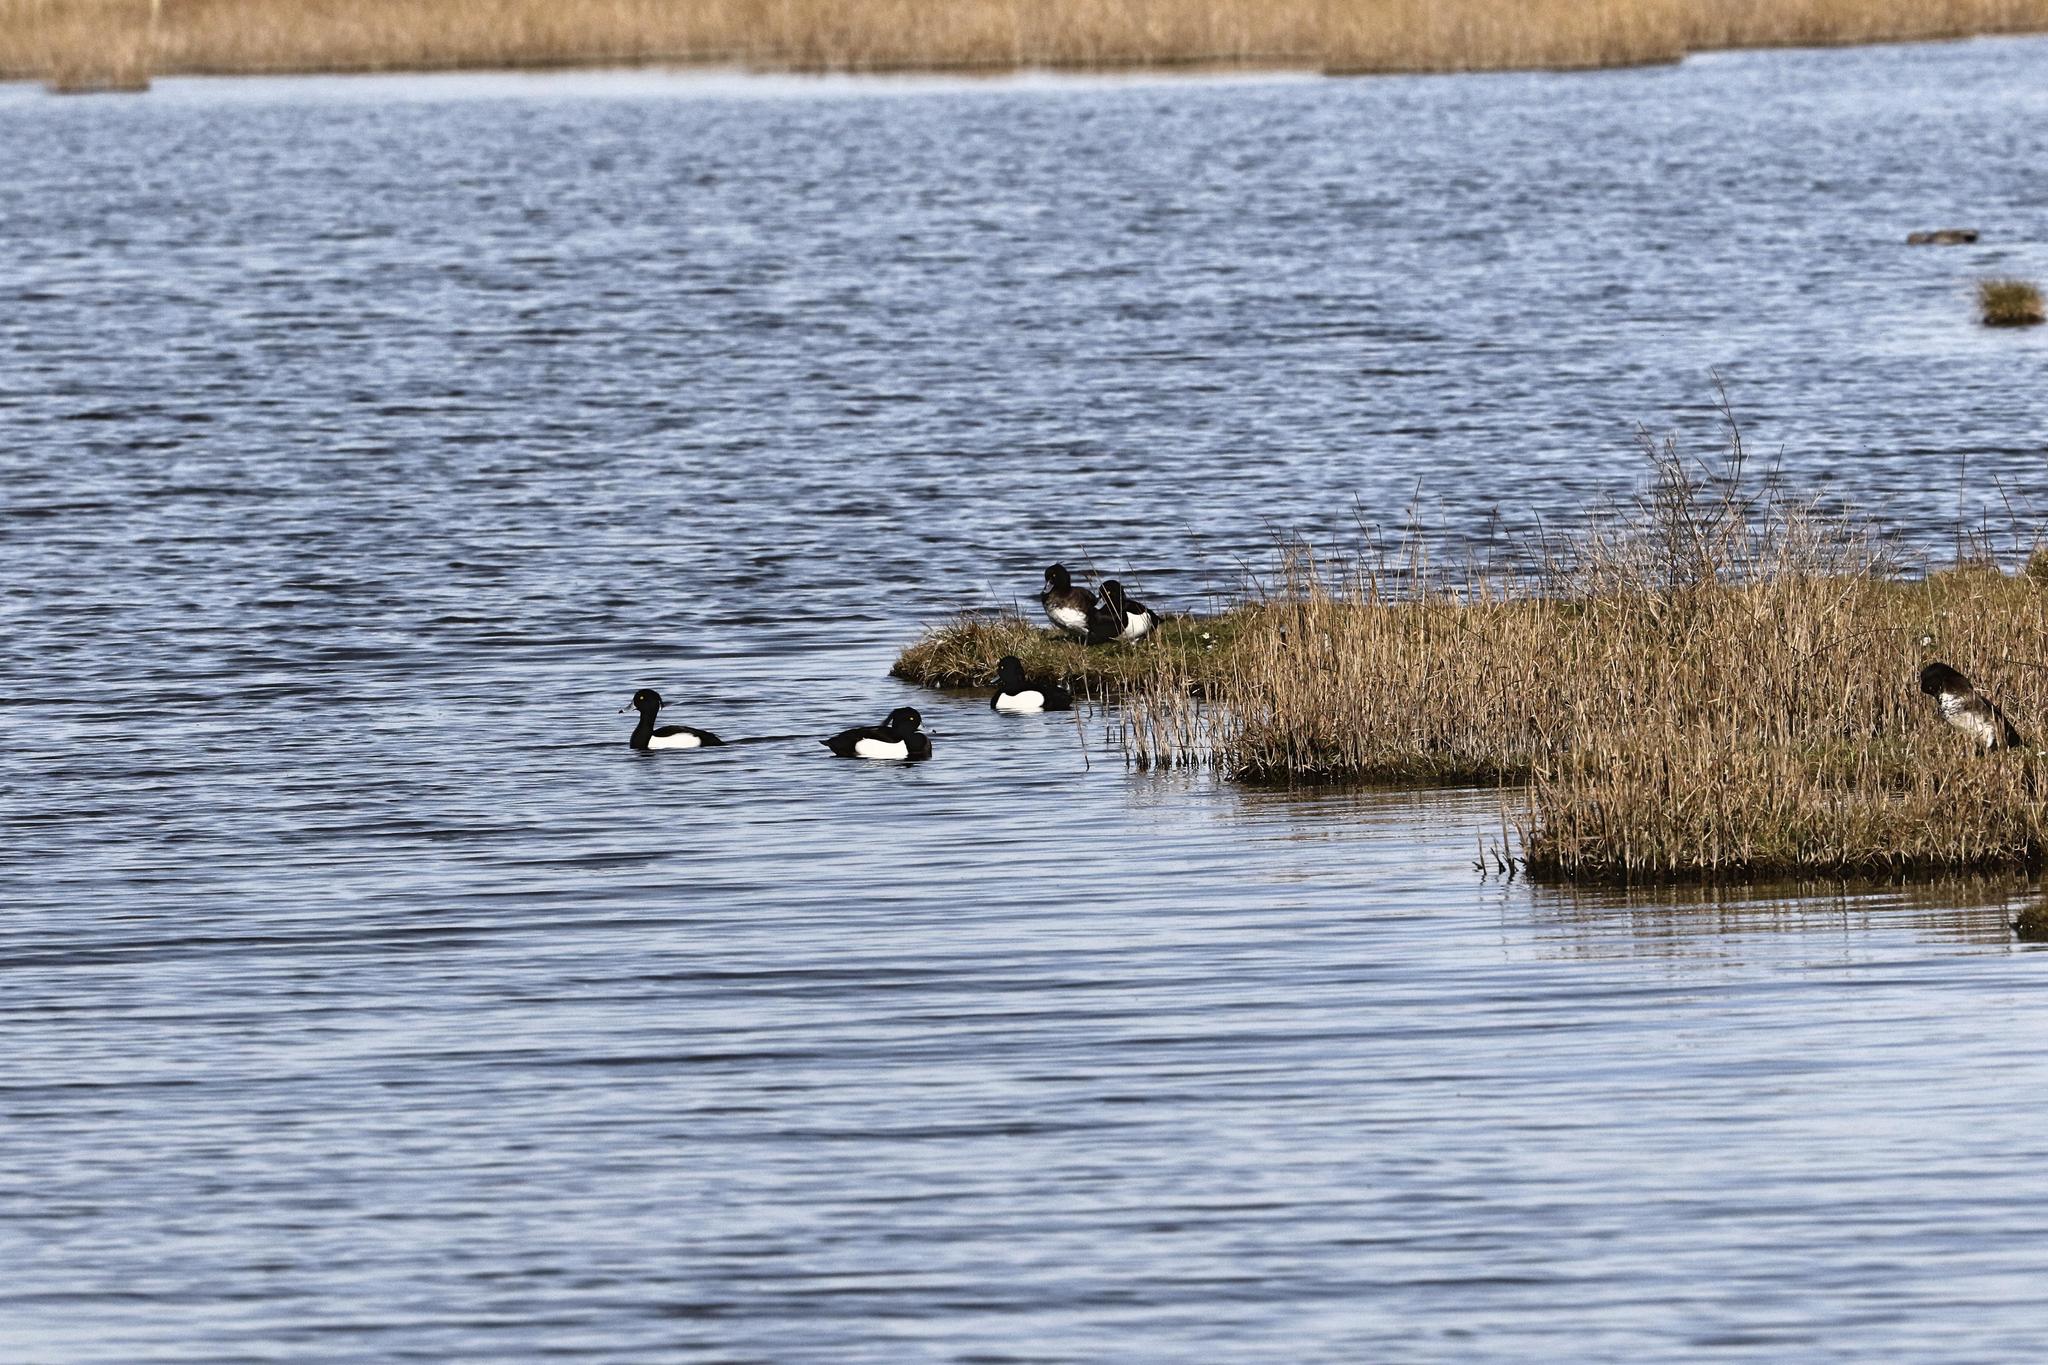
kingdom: Animalia
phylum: Chordata
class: Aves
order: Anseriformes
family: Anatidae
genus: Aythya
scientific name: Aythya fuligula
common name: Tufted duck
